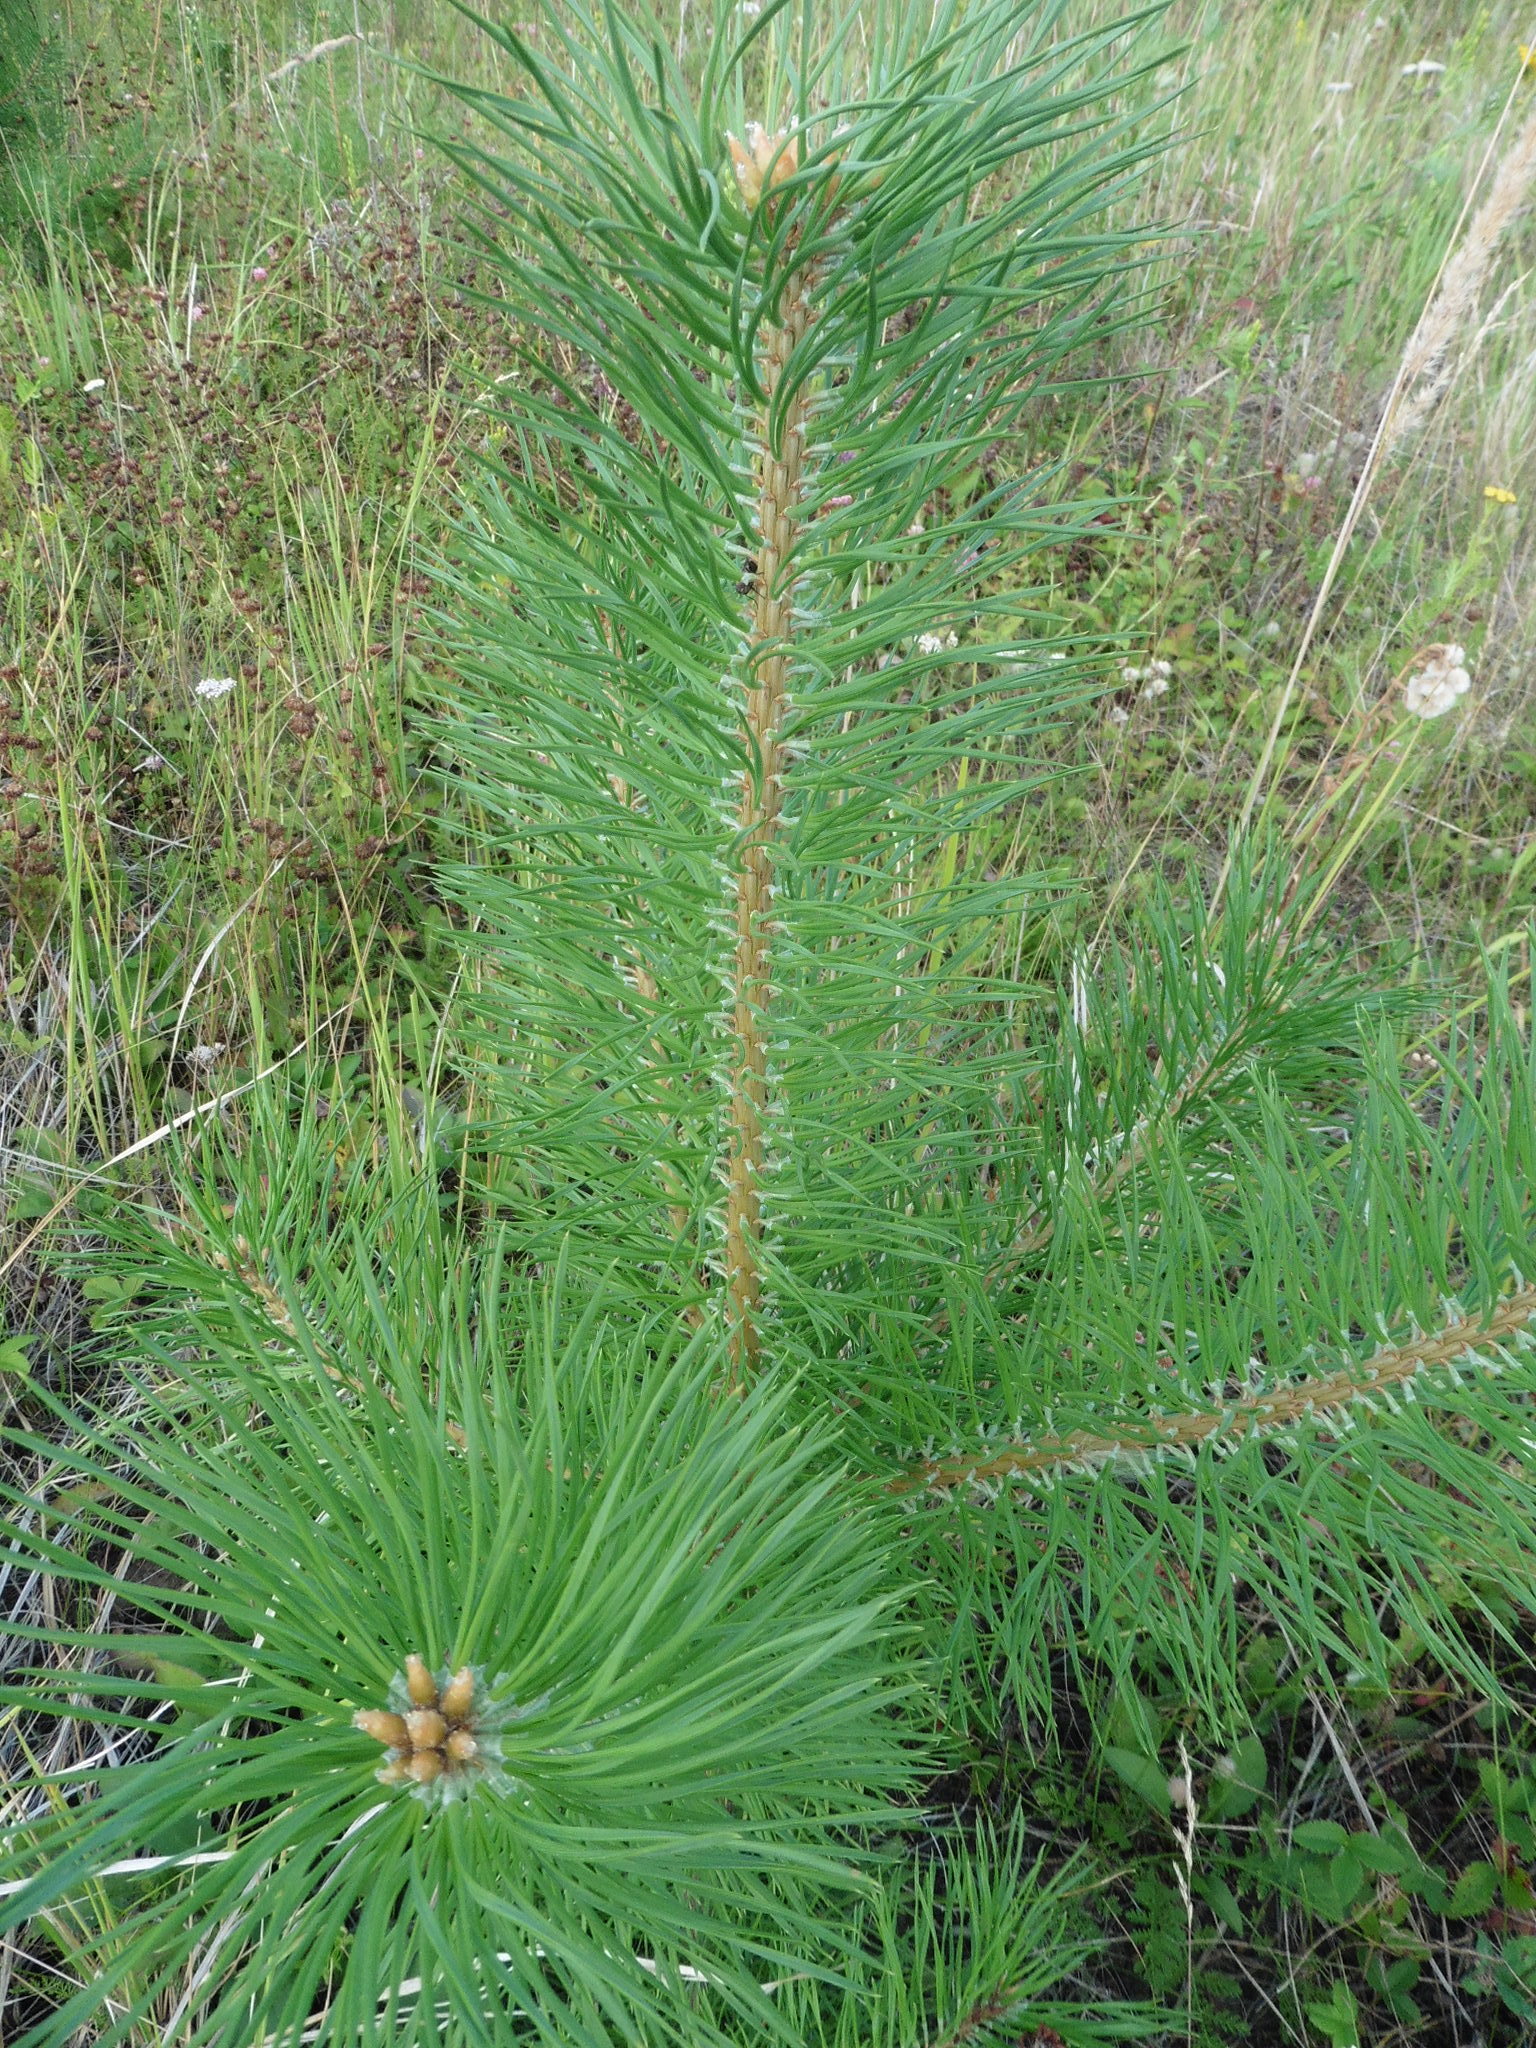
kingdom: Plantae
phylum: Tracheophyta
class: Pinopsida
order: Pinales
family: Pinaceae
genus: Pinus
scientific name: Pinus sylvestris
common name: Scots pine
